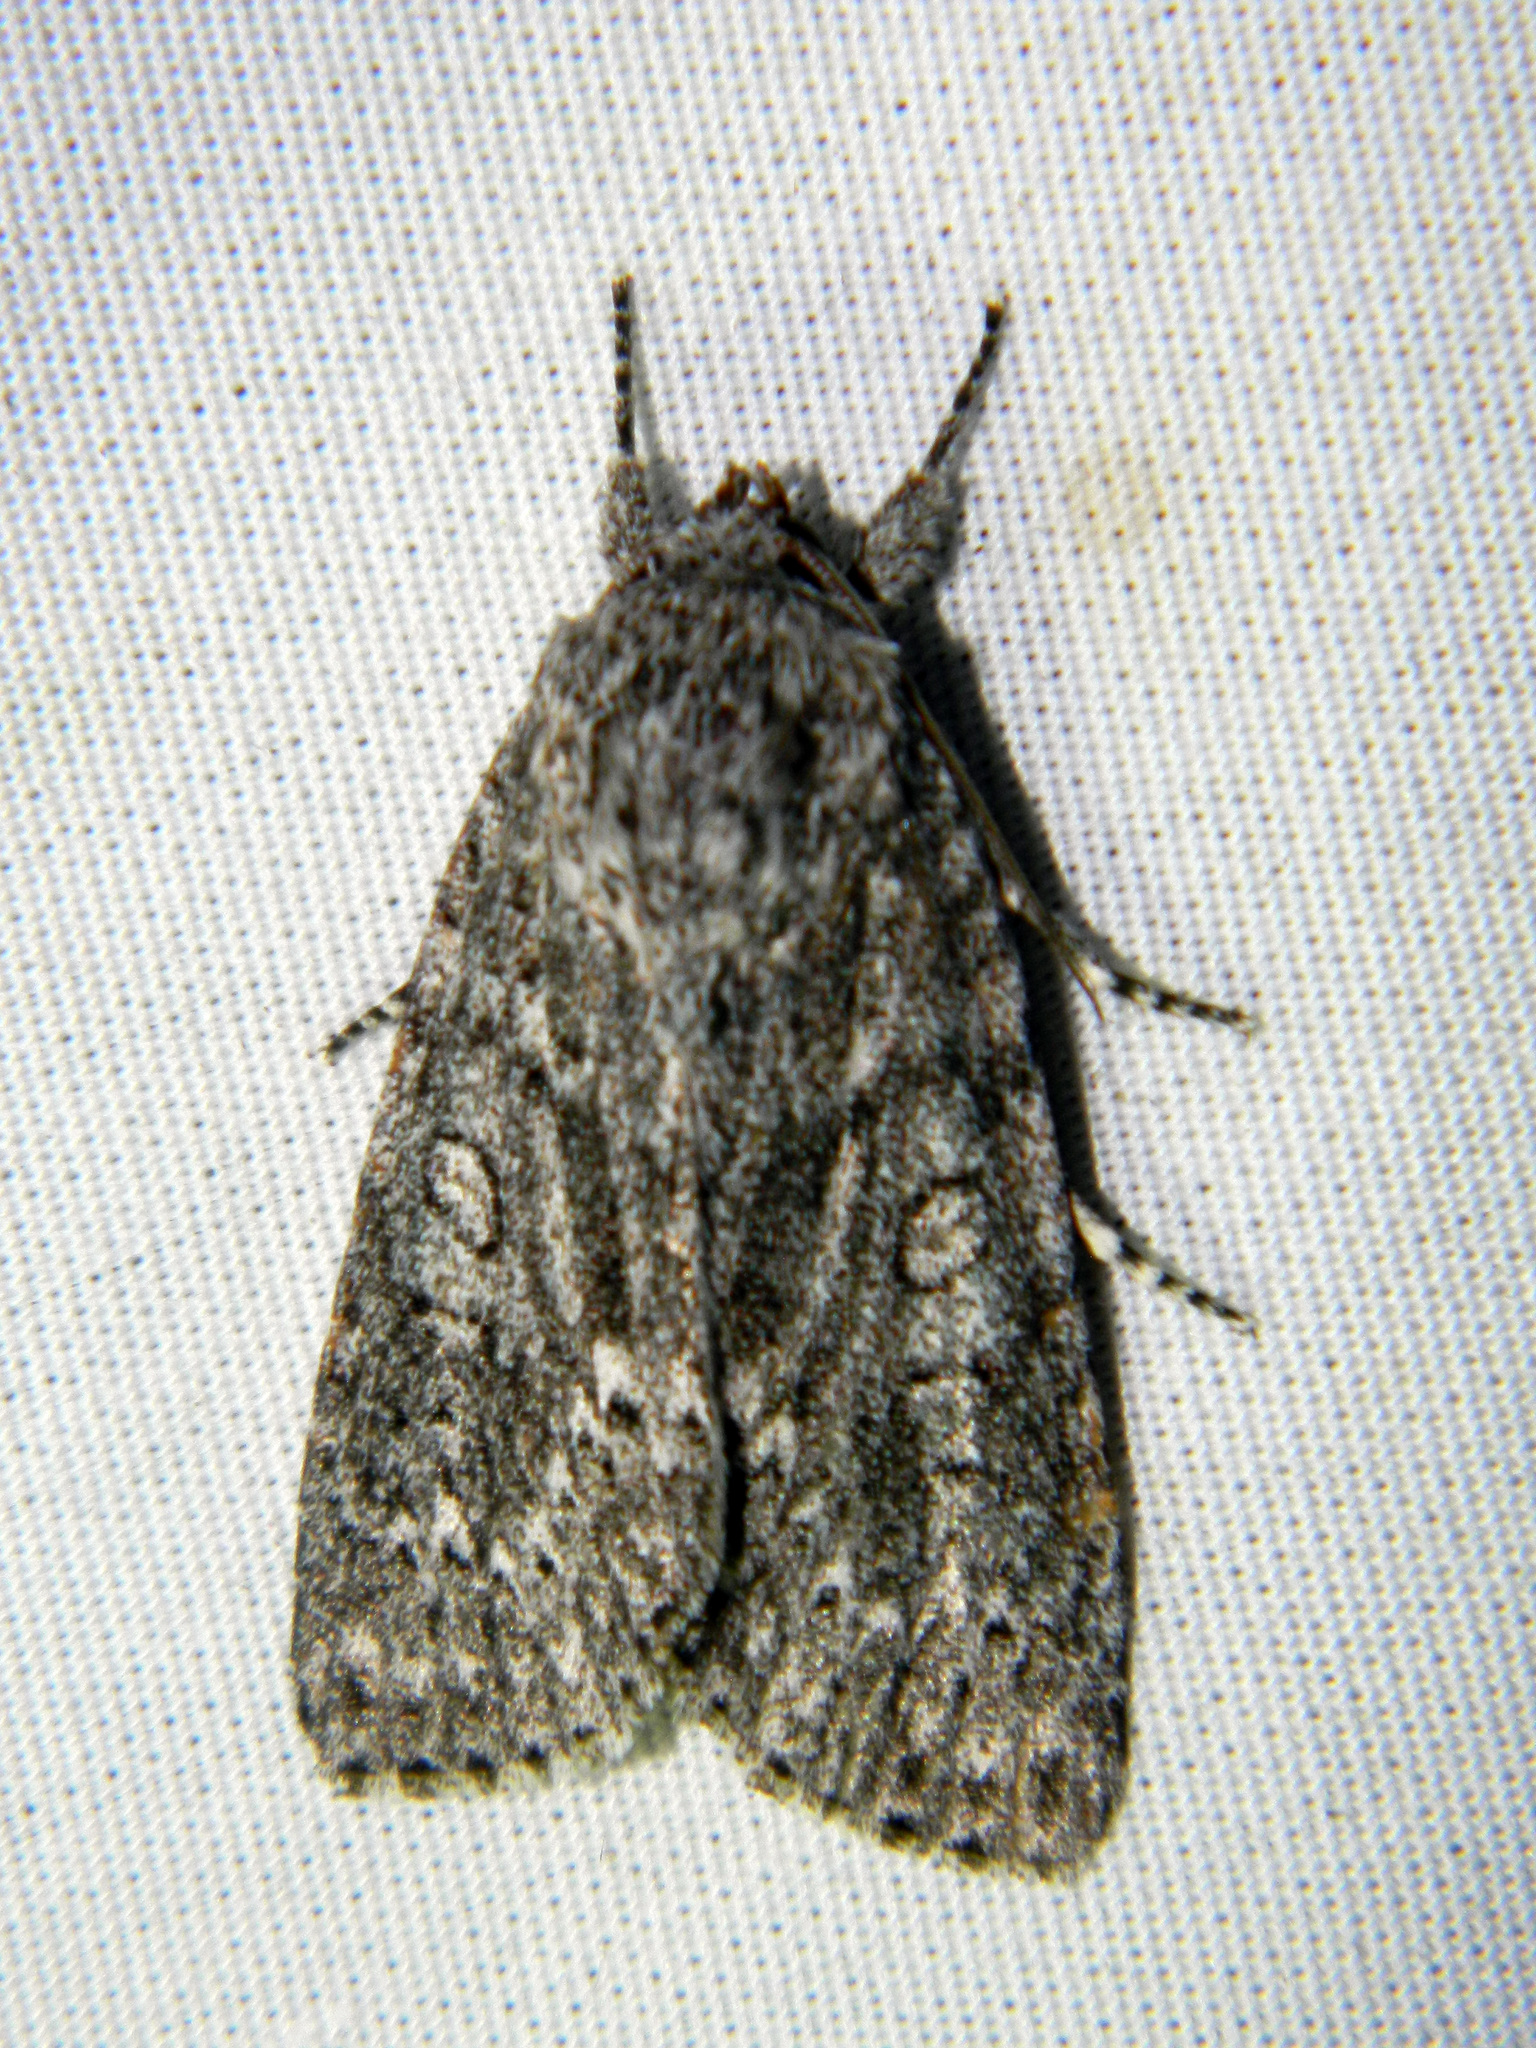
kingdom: Animalia
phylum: Arthropoda
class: Insecta
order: Lepidoptera
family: Noctuidae
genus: Acronicta
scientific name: Acronicta impleta
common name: Powdered dagger
